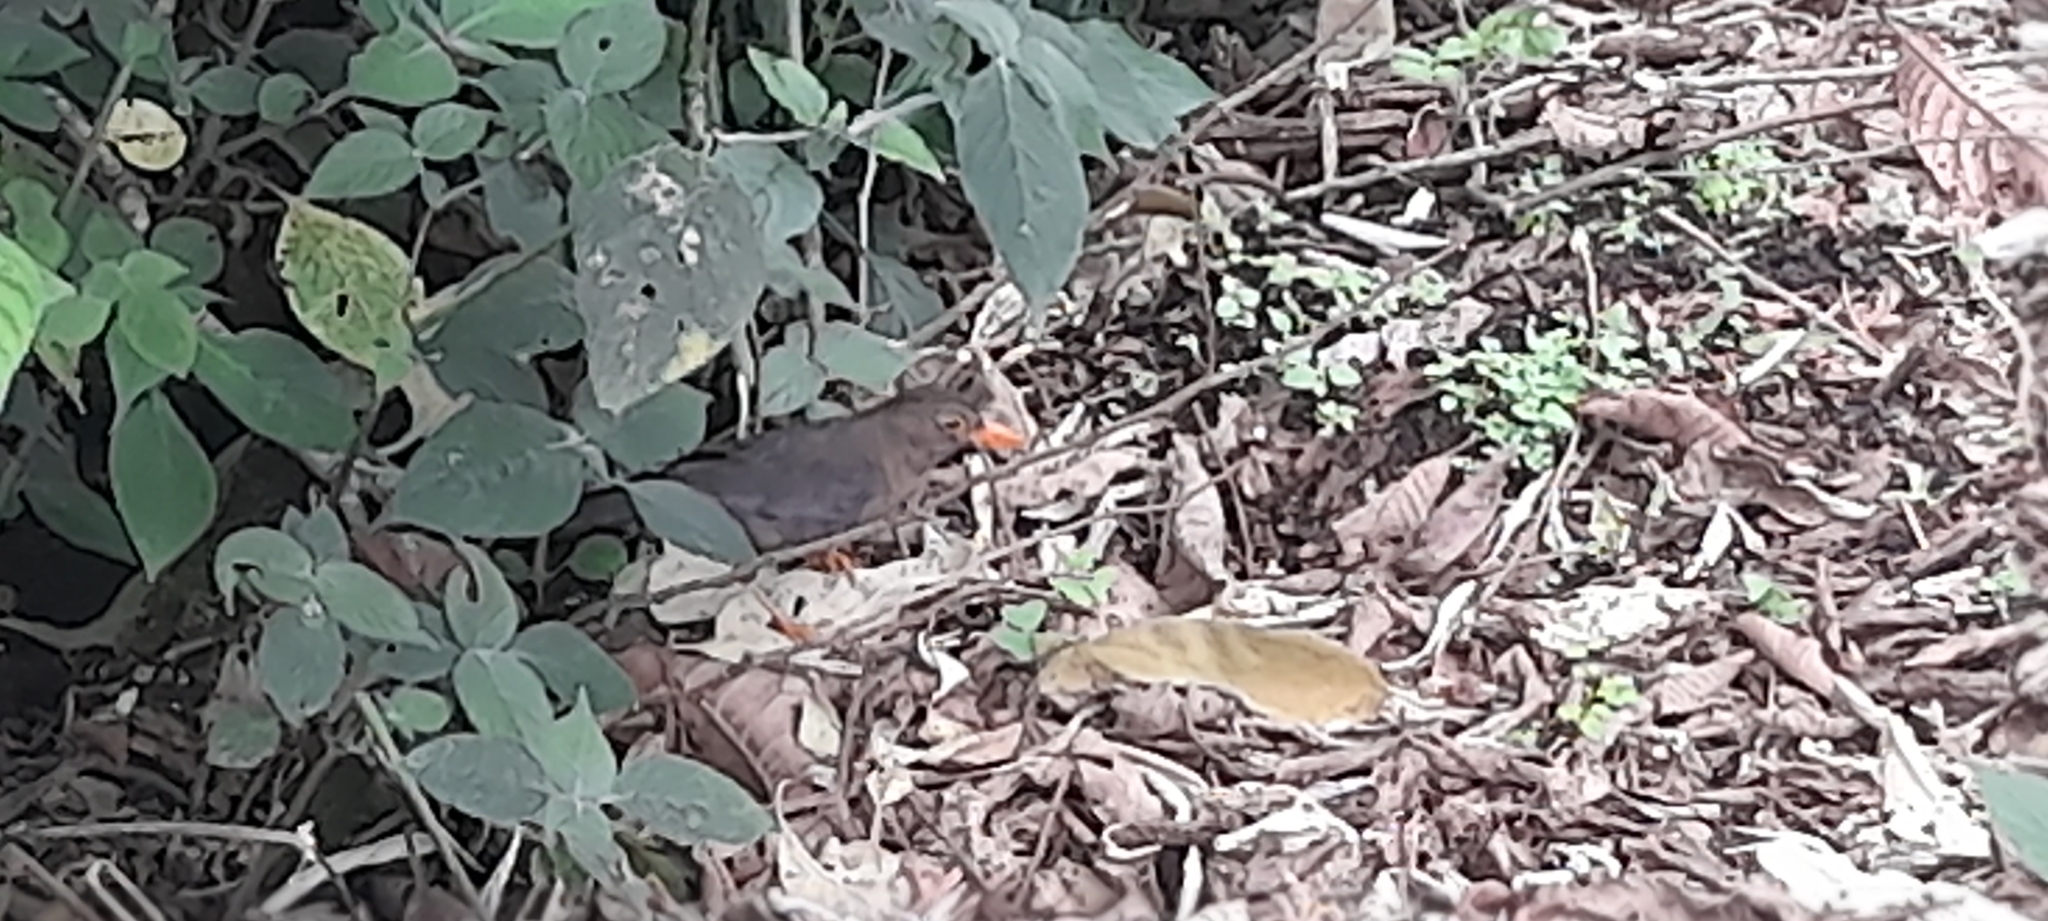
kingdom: Animalia
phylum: Chordata
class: Aves
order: Passeriformes
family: Turdidae
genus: Turdus
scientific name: Turdus simillimus
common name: Indian blackbird
